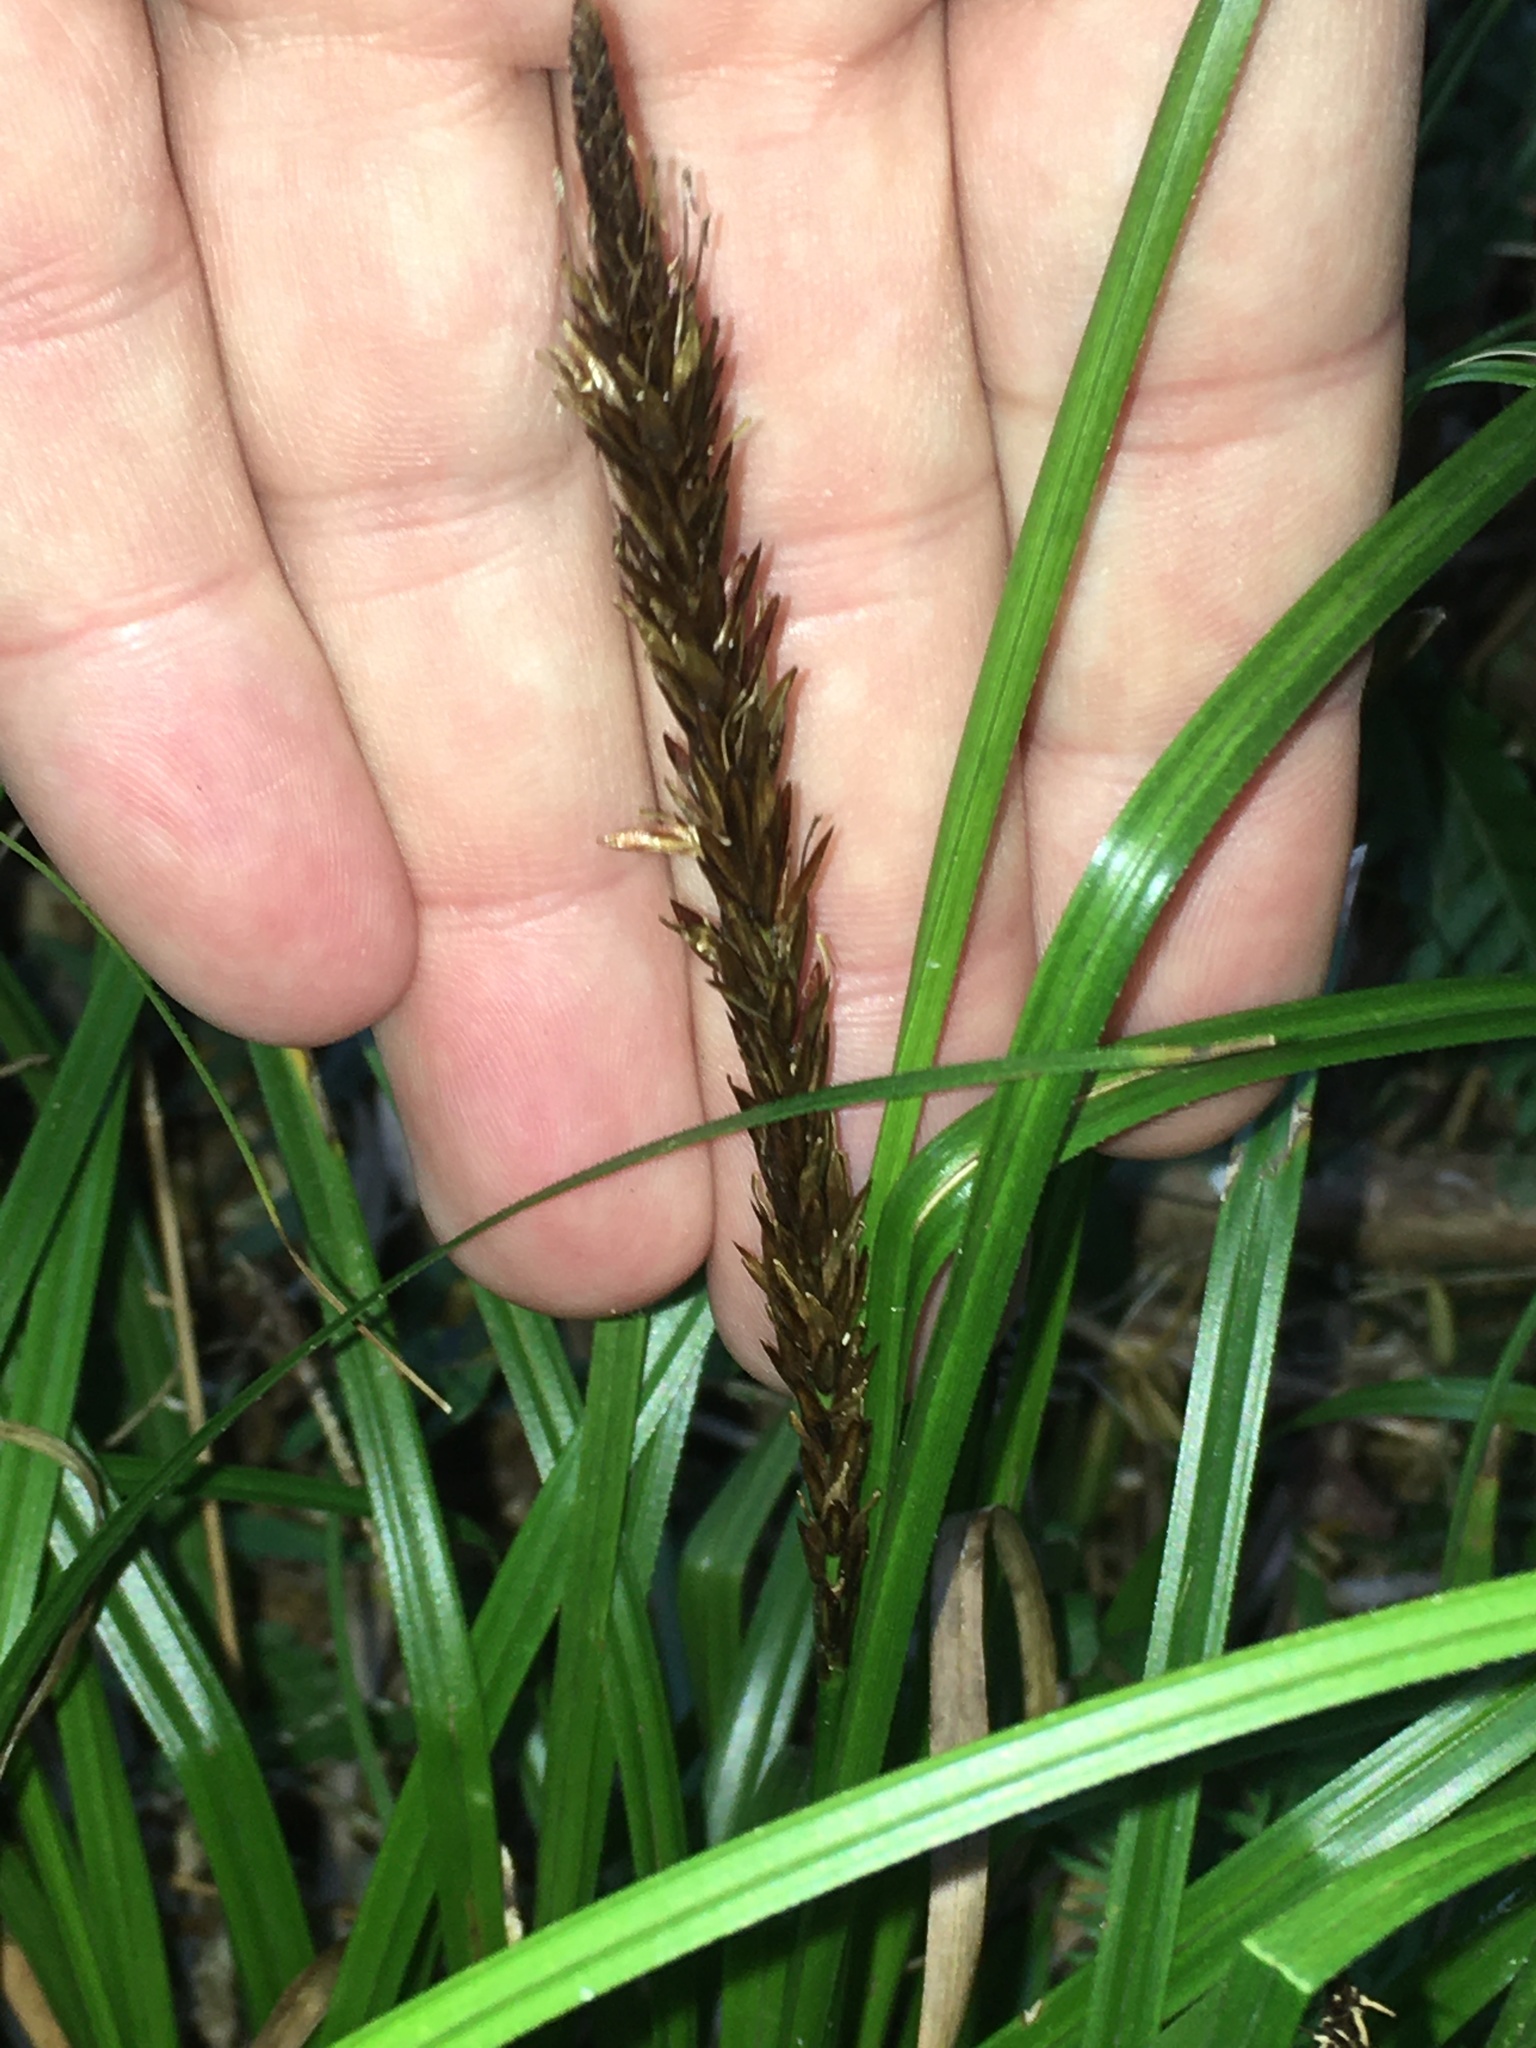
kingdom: Plantae
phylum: Tracheophyta
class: Liliopsida
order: Poales
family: Cyperaceae
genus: Carex
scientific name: Carex uncinata
